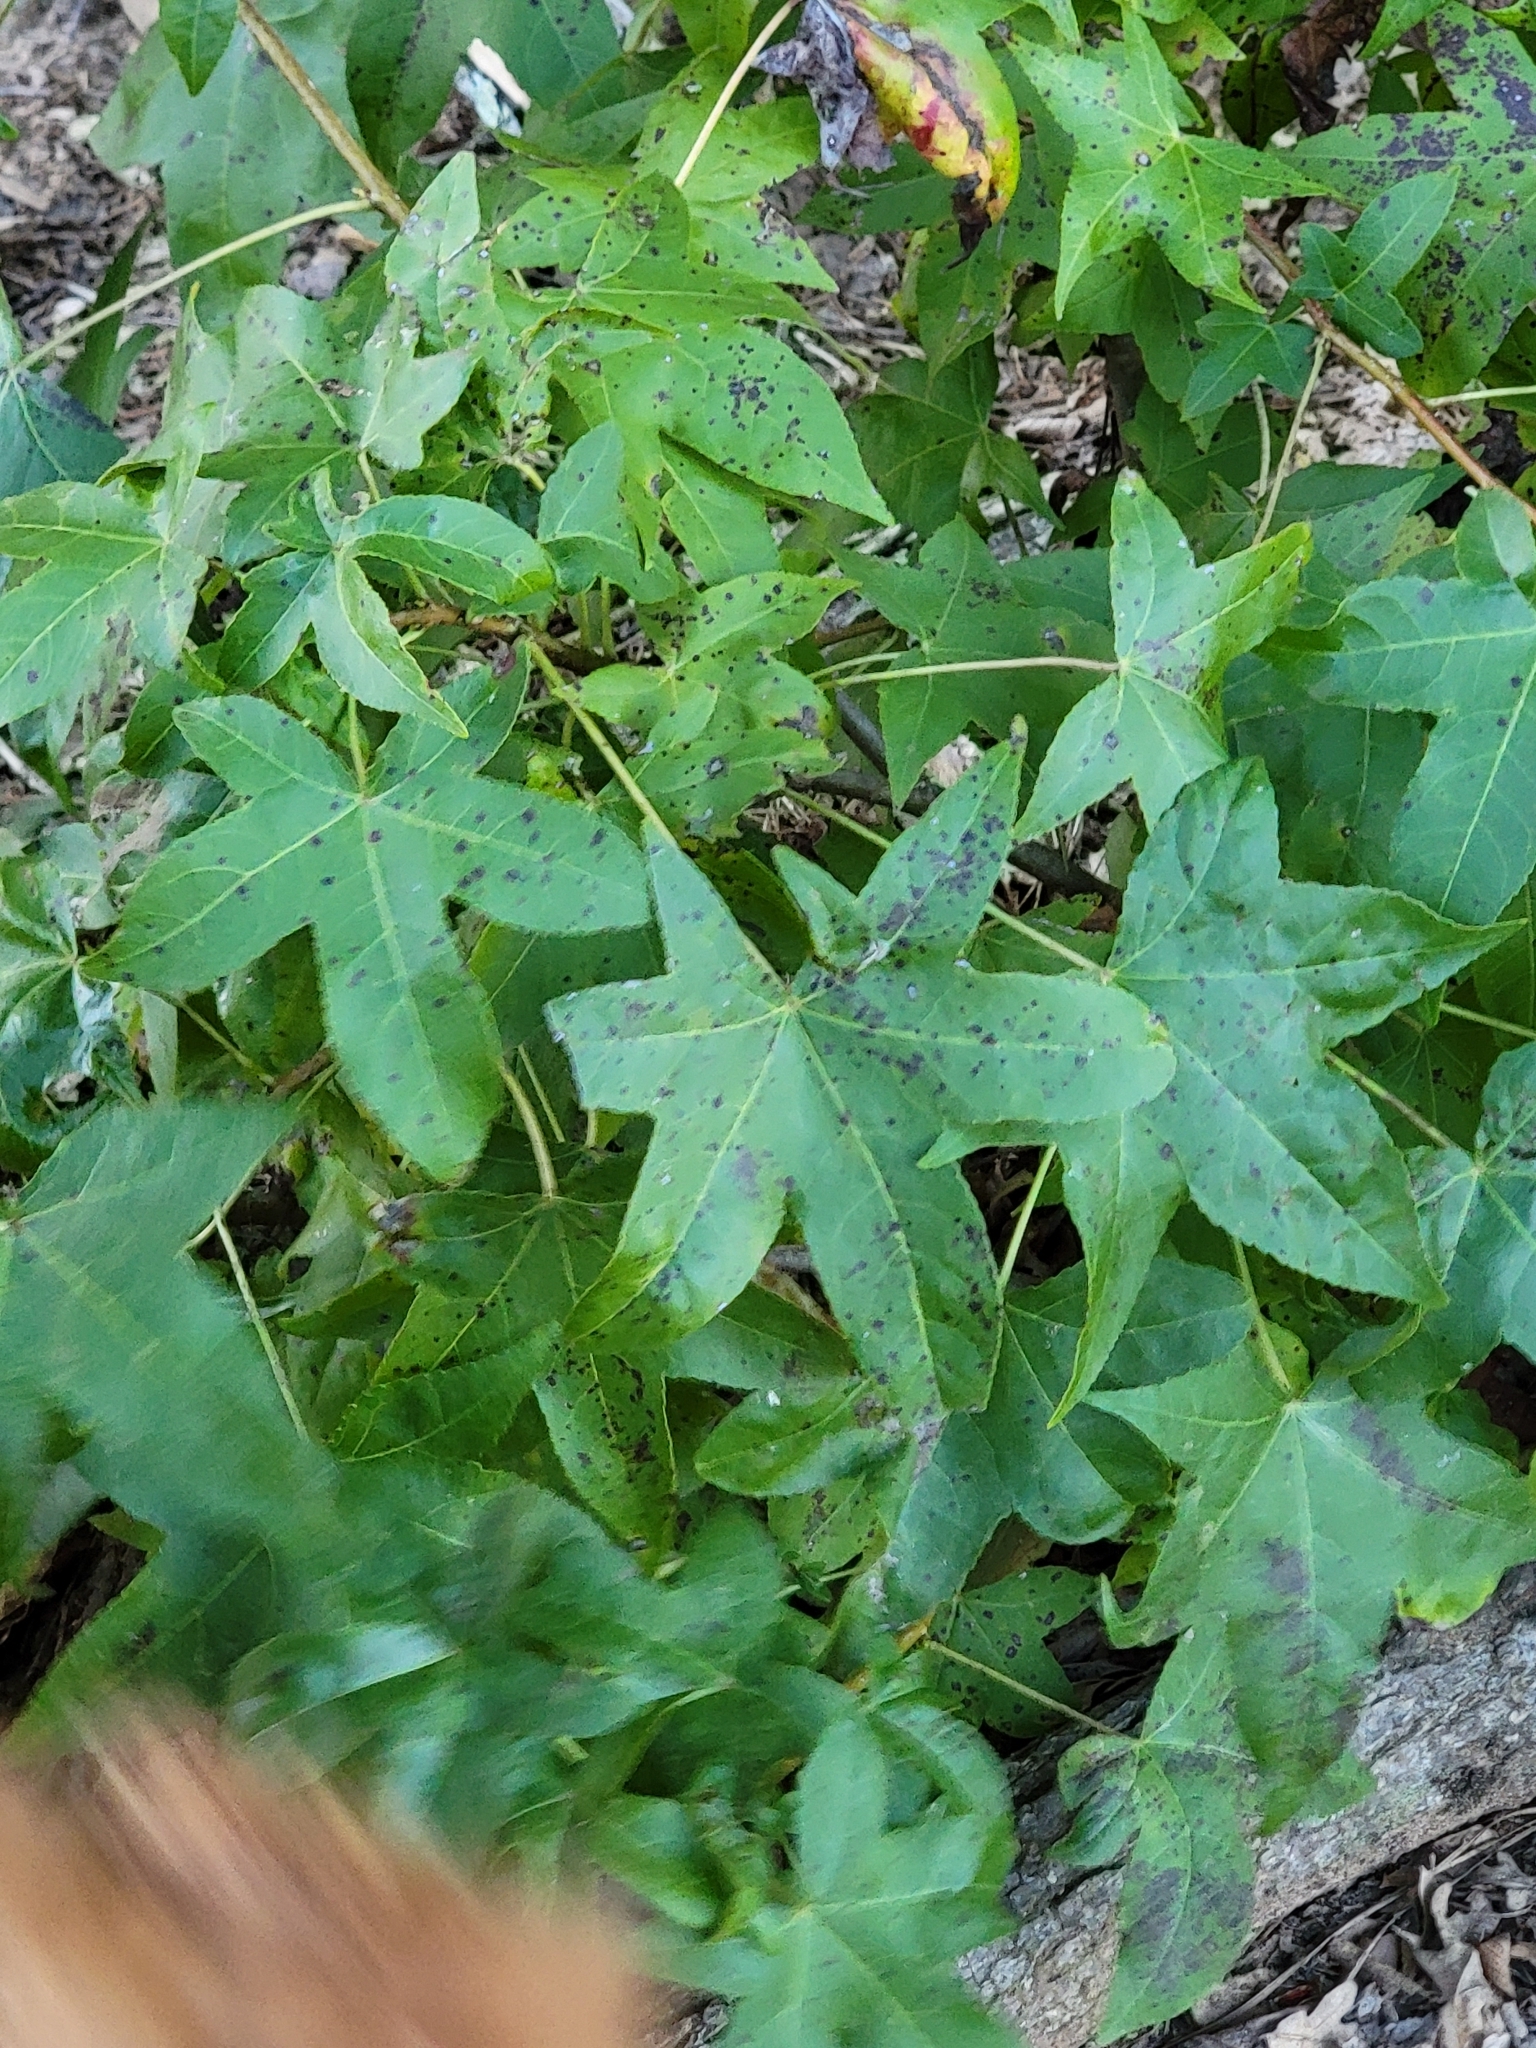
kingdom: Plantae
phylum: Tracheophyta
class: Magnoliopsida
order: Saxifragales
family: Altingiaceae
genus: Liquidambar
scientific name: Liquidambar styraciflua
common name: Sweet gum
